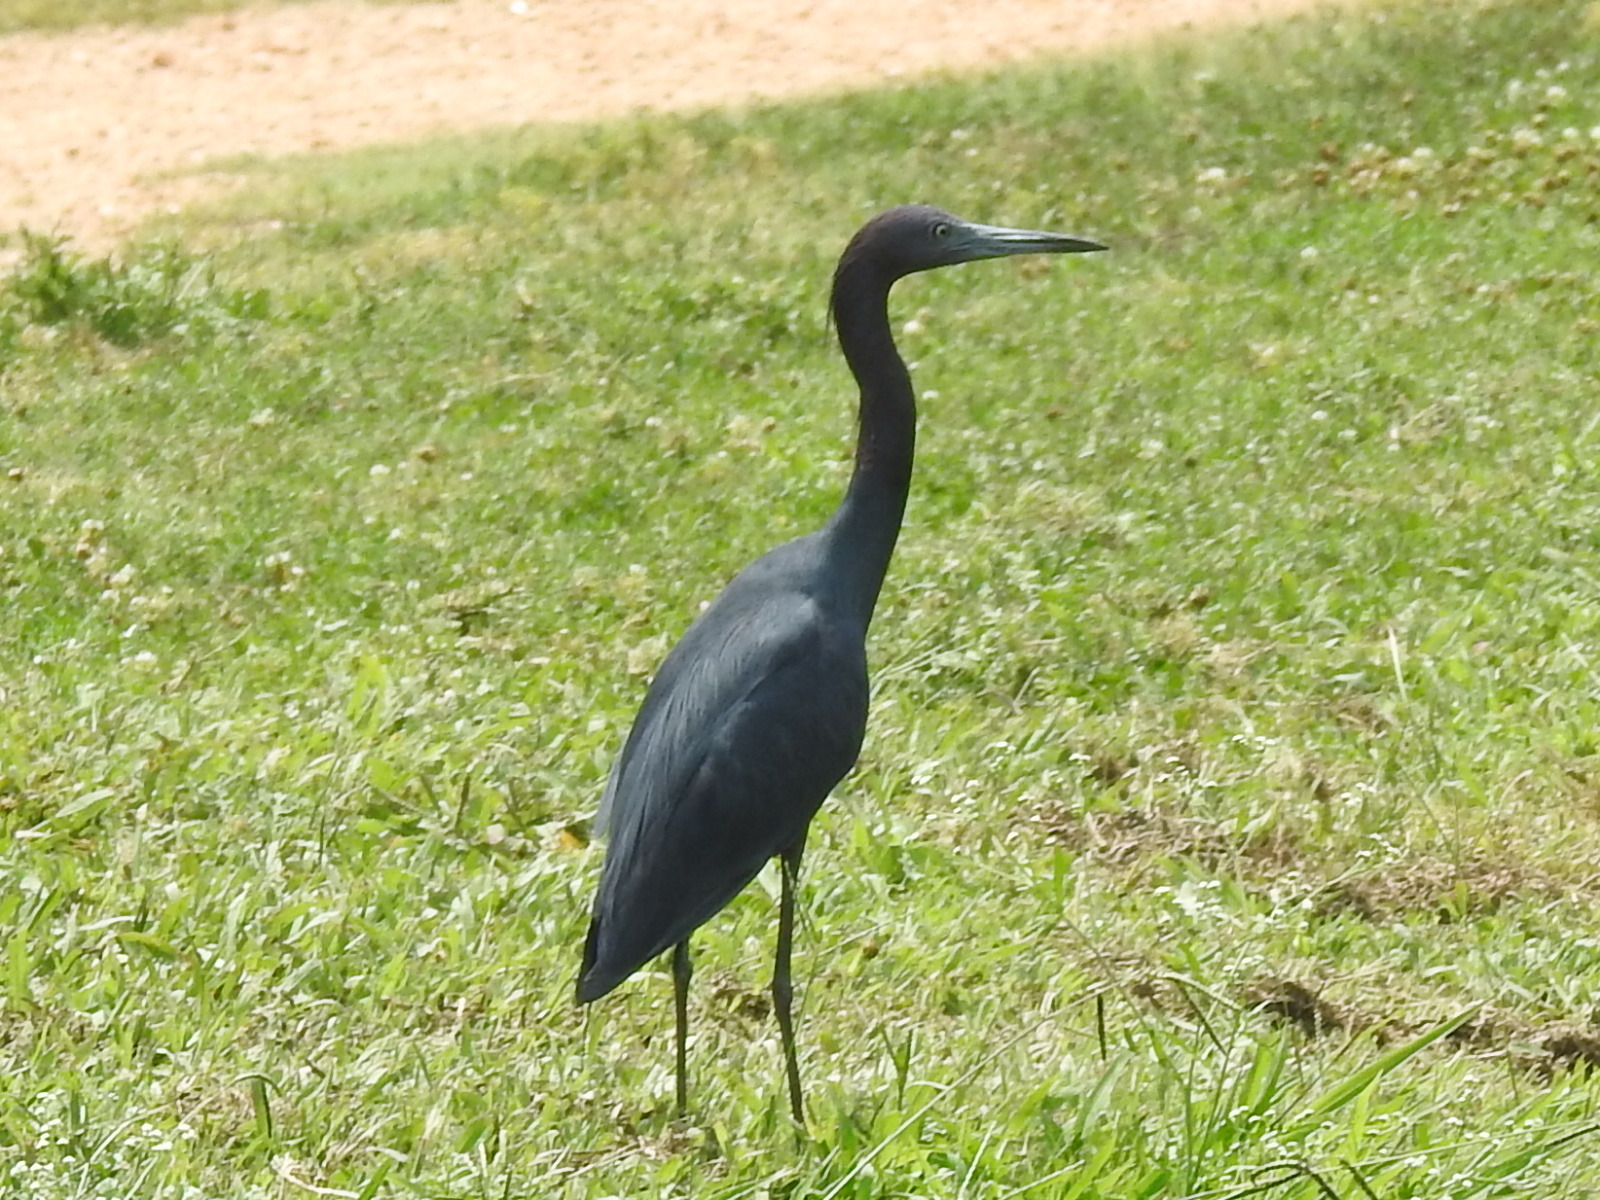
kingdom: Animalia
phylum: Chordata
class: Aves
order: Pelecaniformes
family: Ardeidae
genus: Egretta
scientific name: Egretta caerulea
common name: Little blue heron
